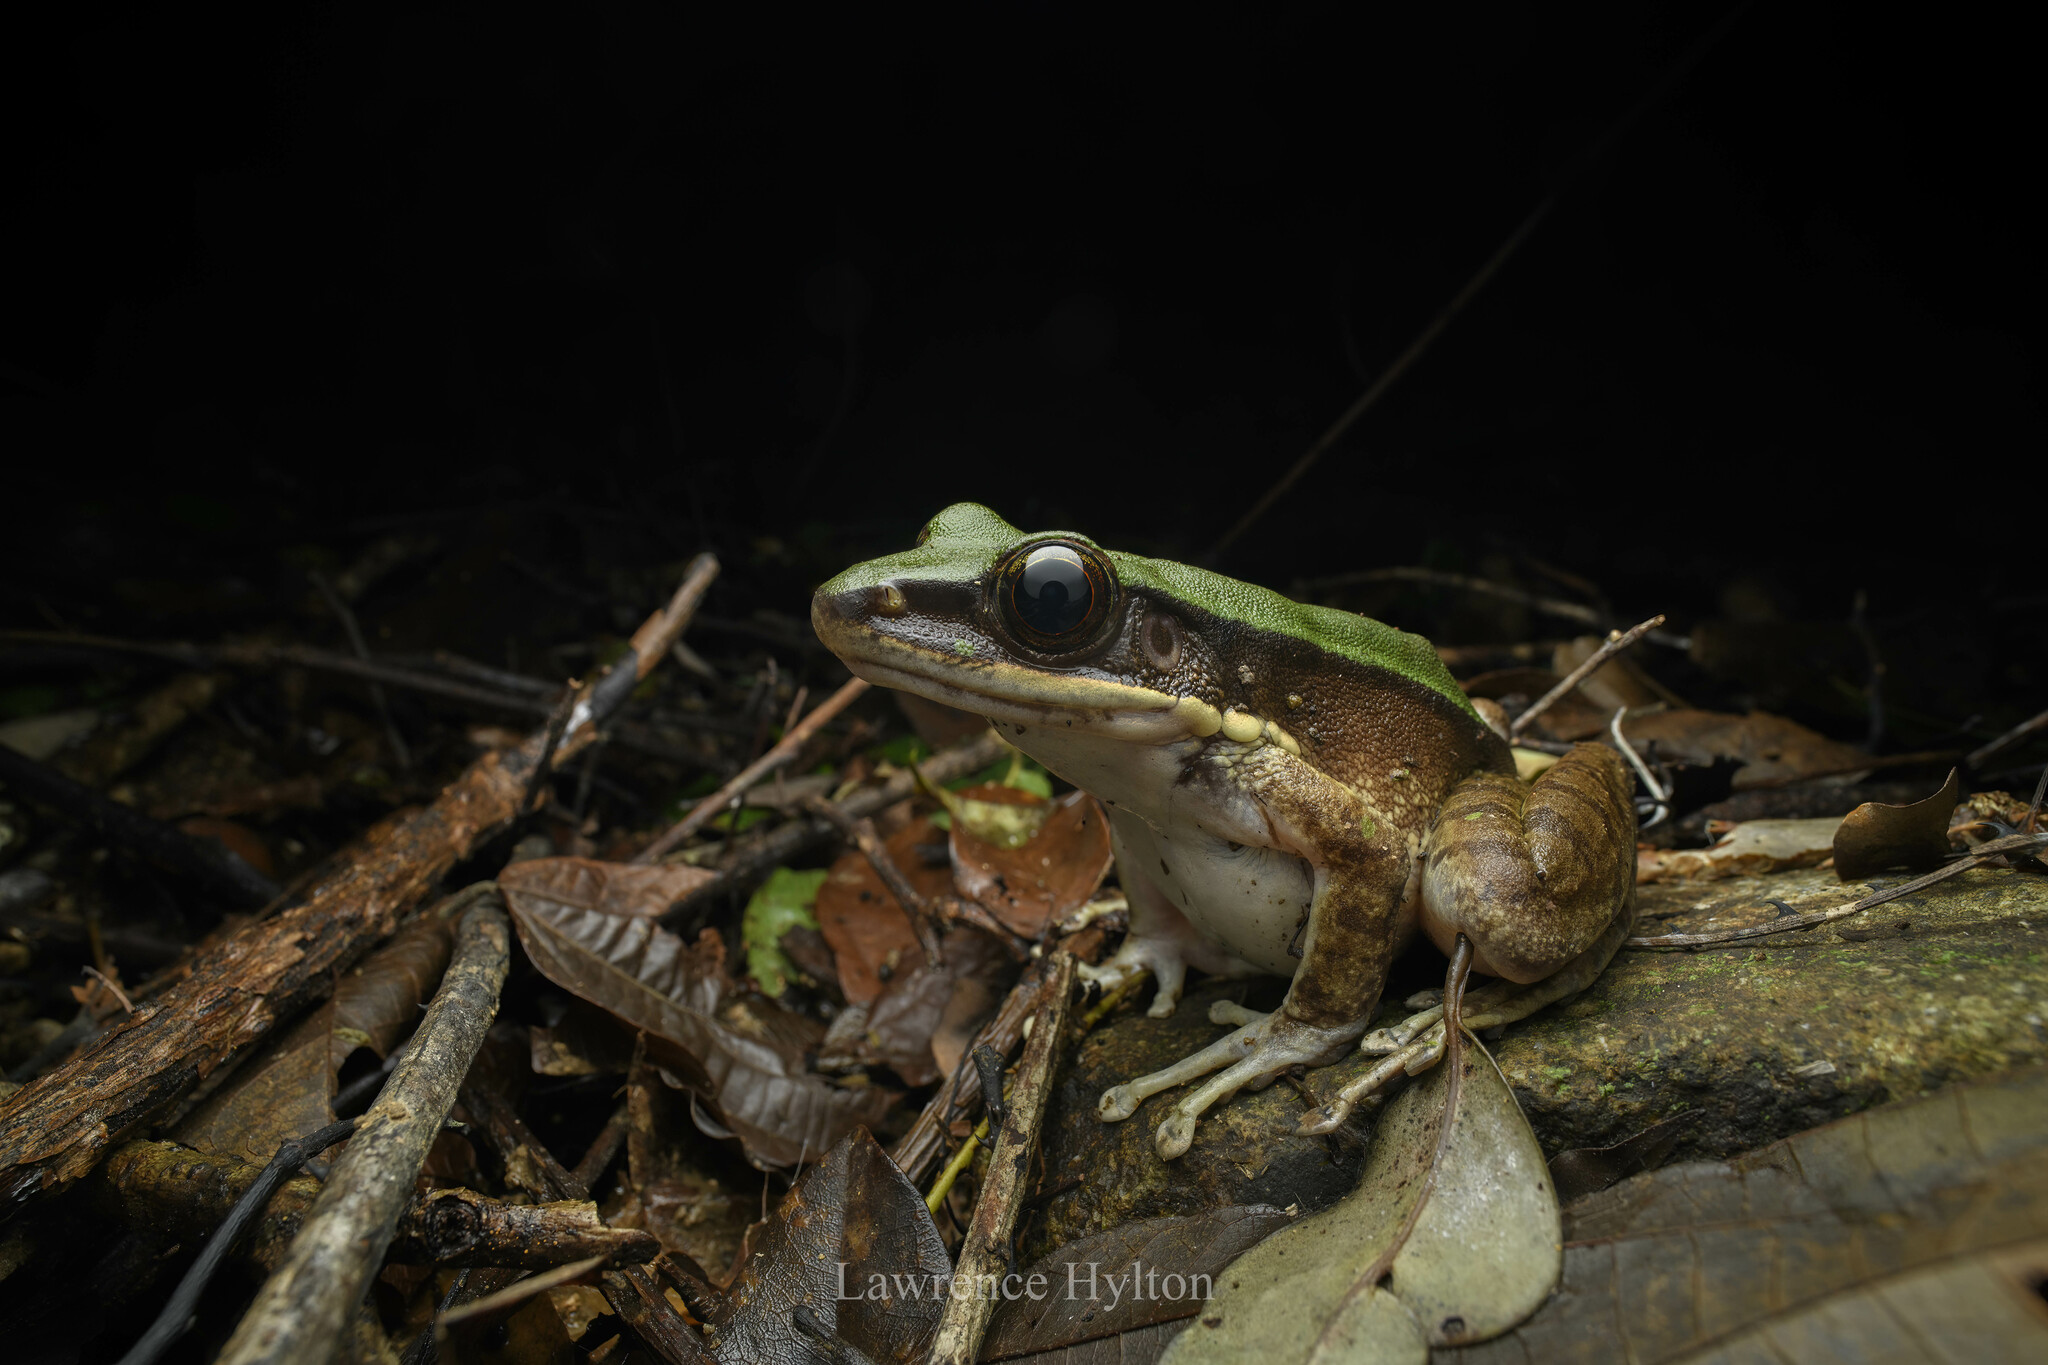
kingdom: Animalia
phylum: Chordata
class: Amphibia
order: Anura
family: Ranidae
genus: Odorrana
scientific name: Odorrana graminea
